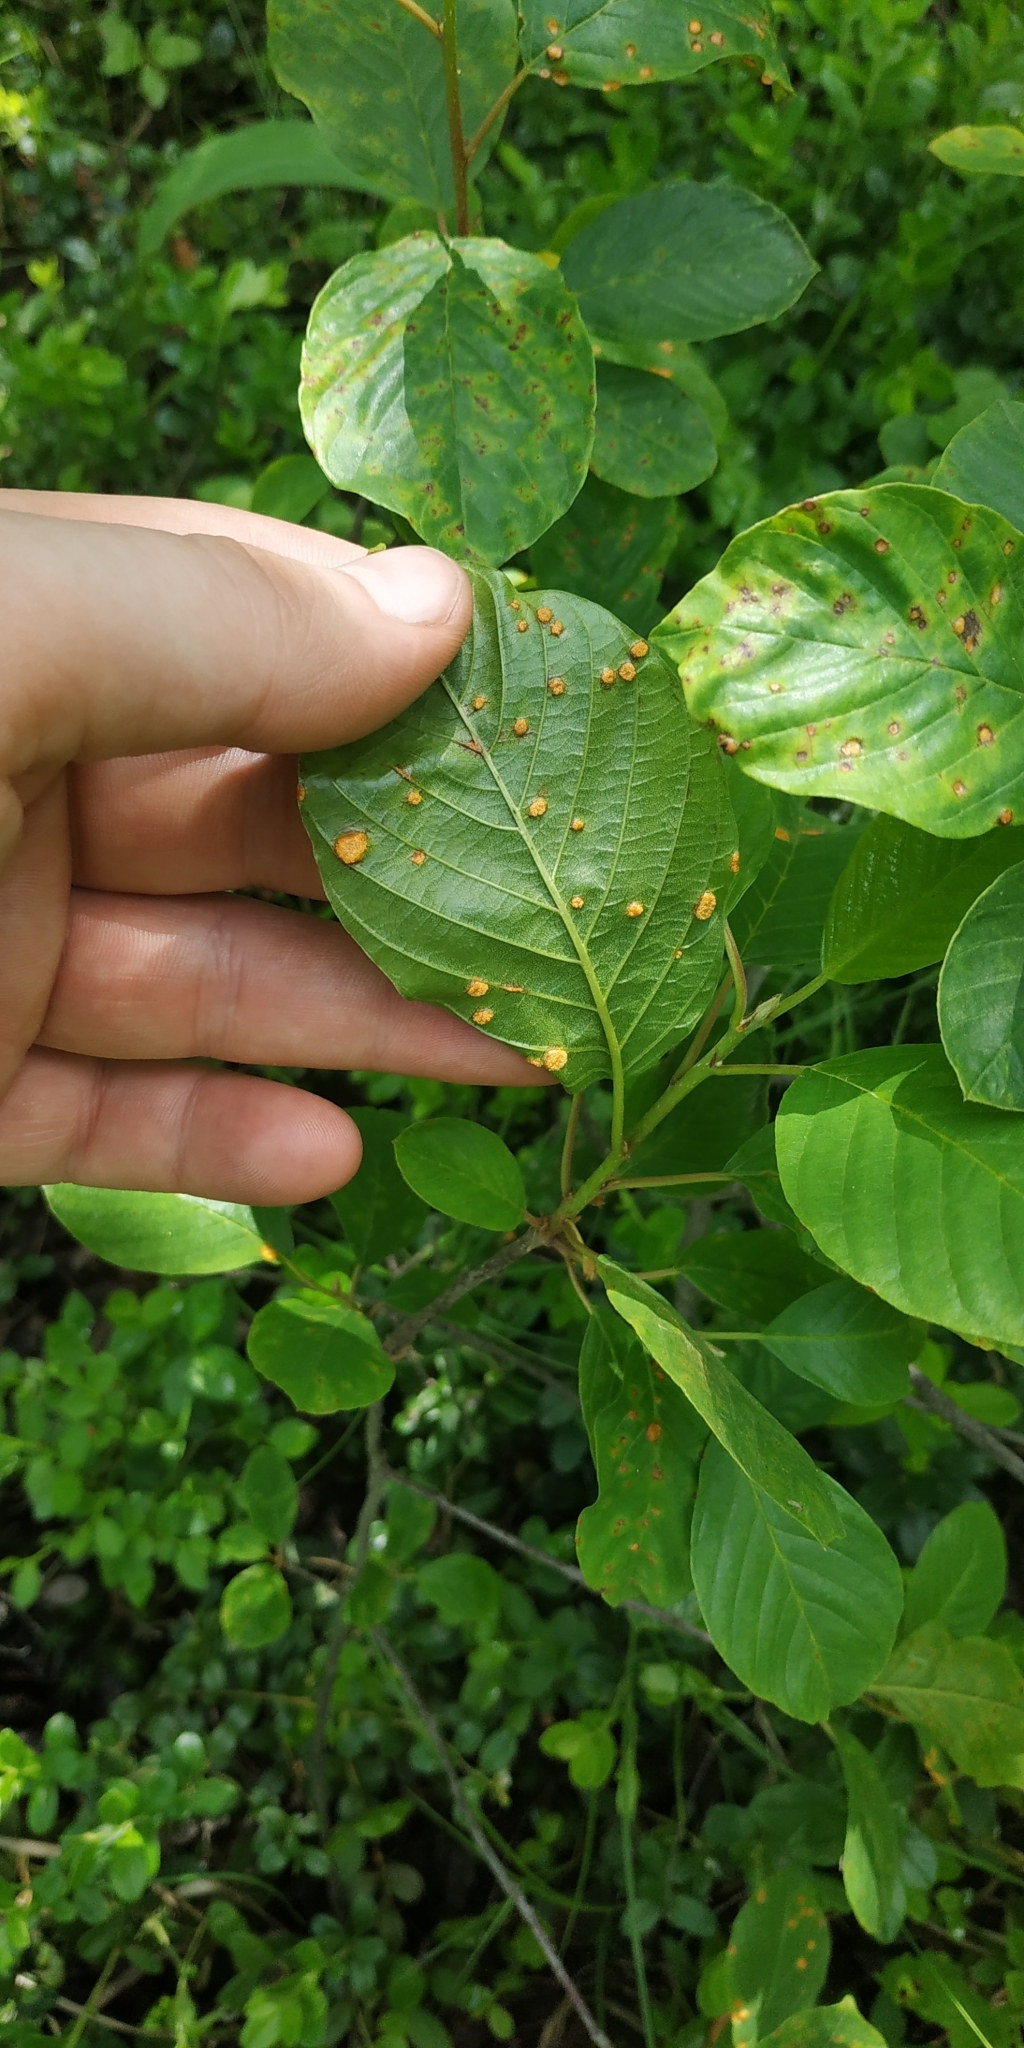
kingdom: Plantae
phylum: Tracheophyta
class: Magnoliopsida
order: Rosales
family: Rhamnaceae
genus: Frangula
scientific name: Frangula alnus
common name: Alder buckthorn
